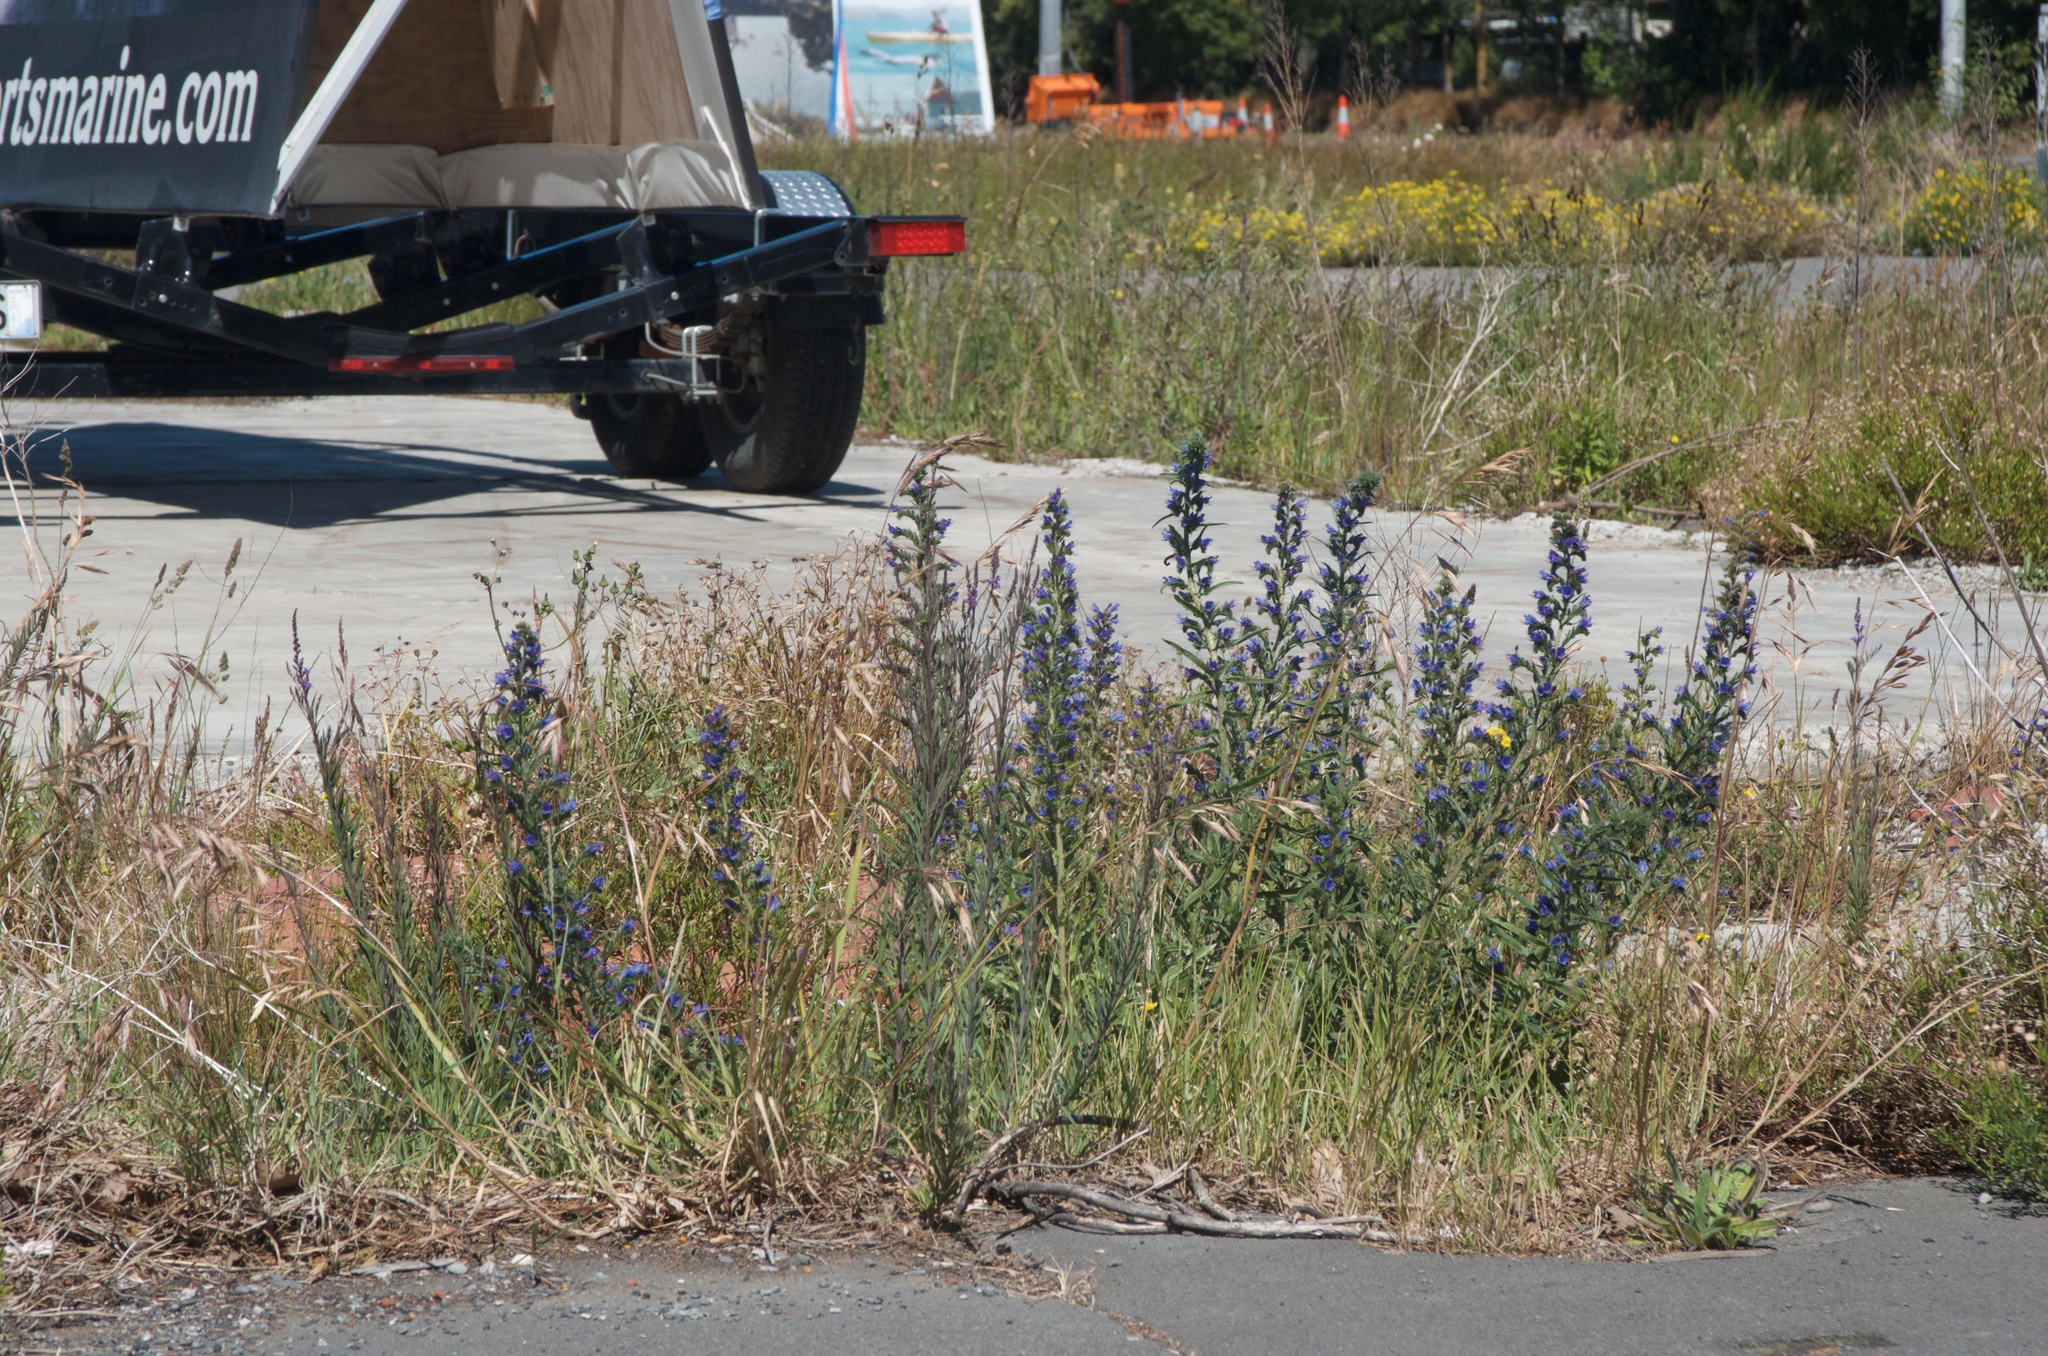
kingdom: Plantae
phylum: Tracheophyta
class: Magnoliopsida
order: Boraginales
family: Boraginaceae
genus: Echium
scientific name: Echium vulgare
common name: Common viper's bugloss
